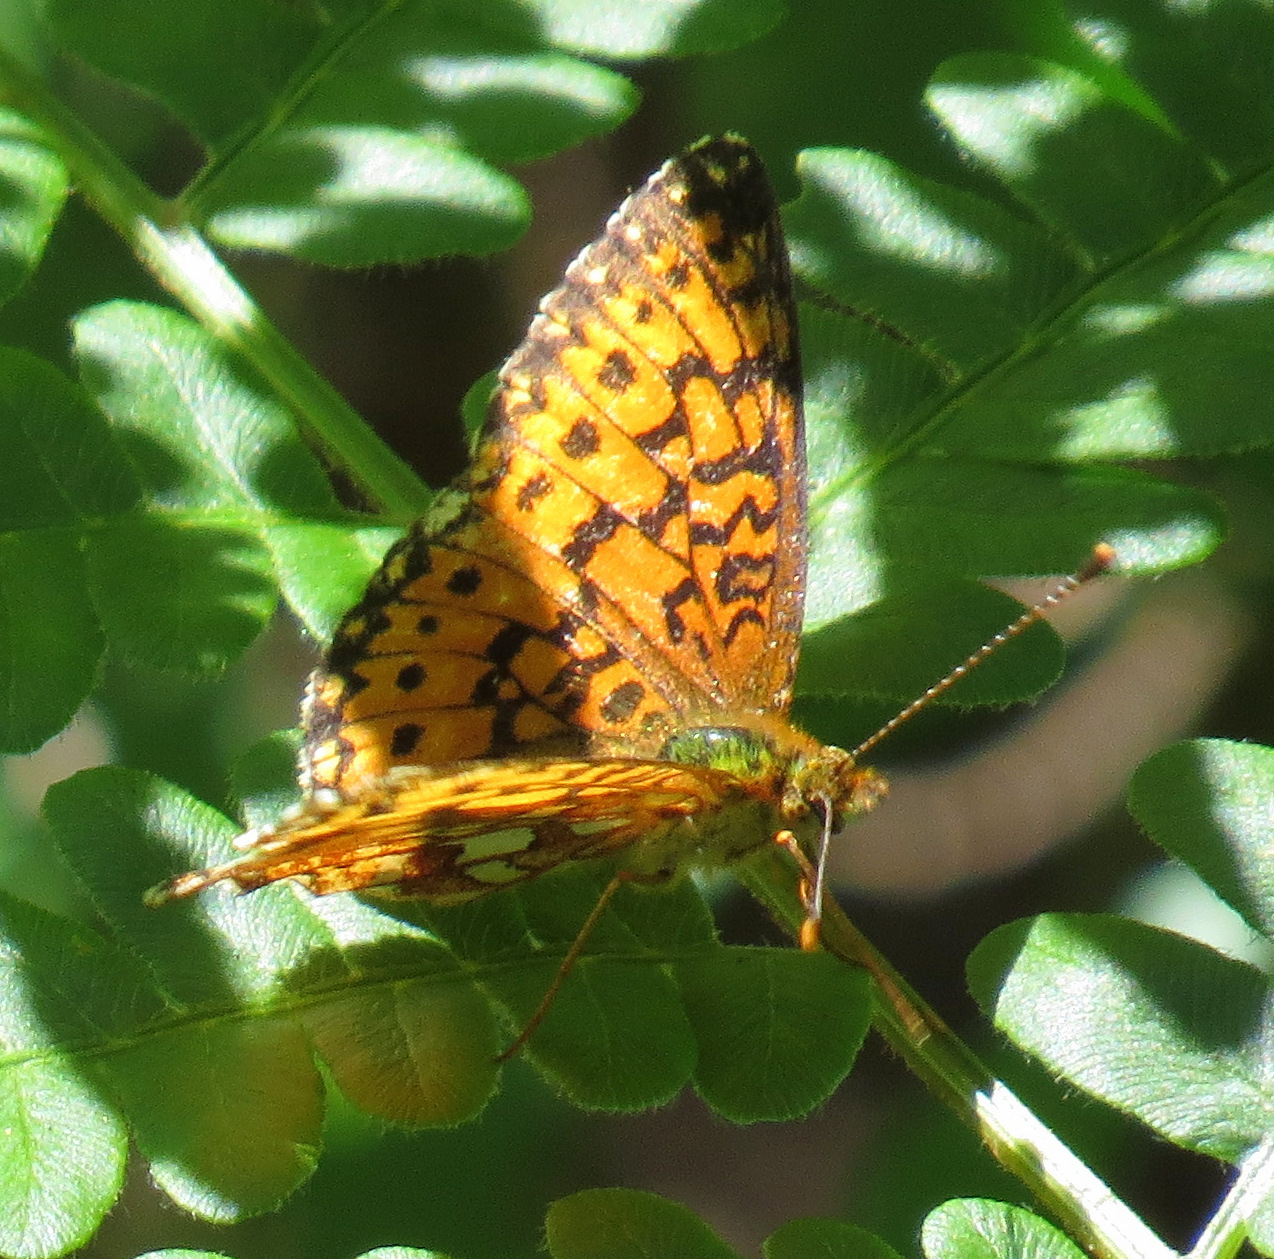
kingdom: Animalia
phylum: Arthropoda
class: Insecta
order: Lepidoptera
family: Nymphalidae
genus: Boloria
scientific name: Boloria
